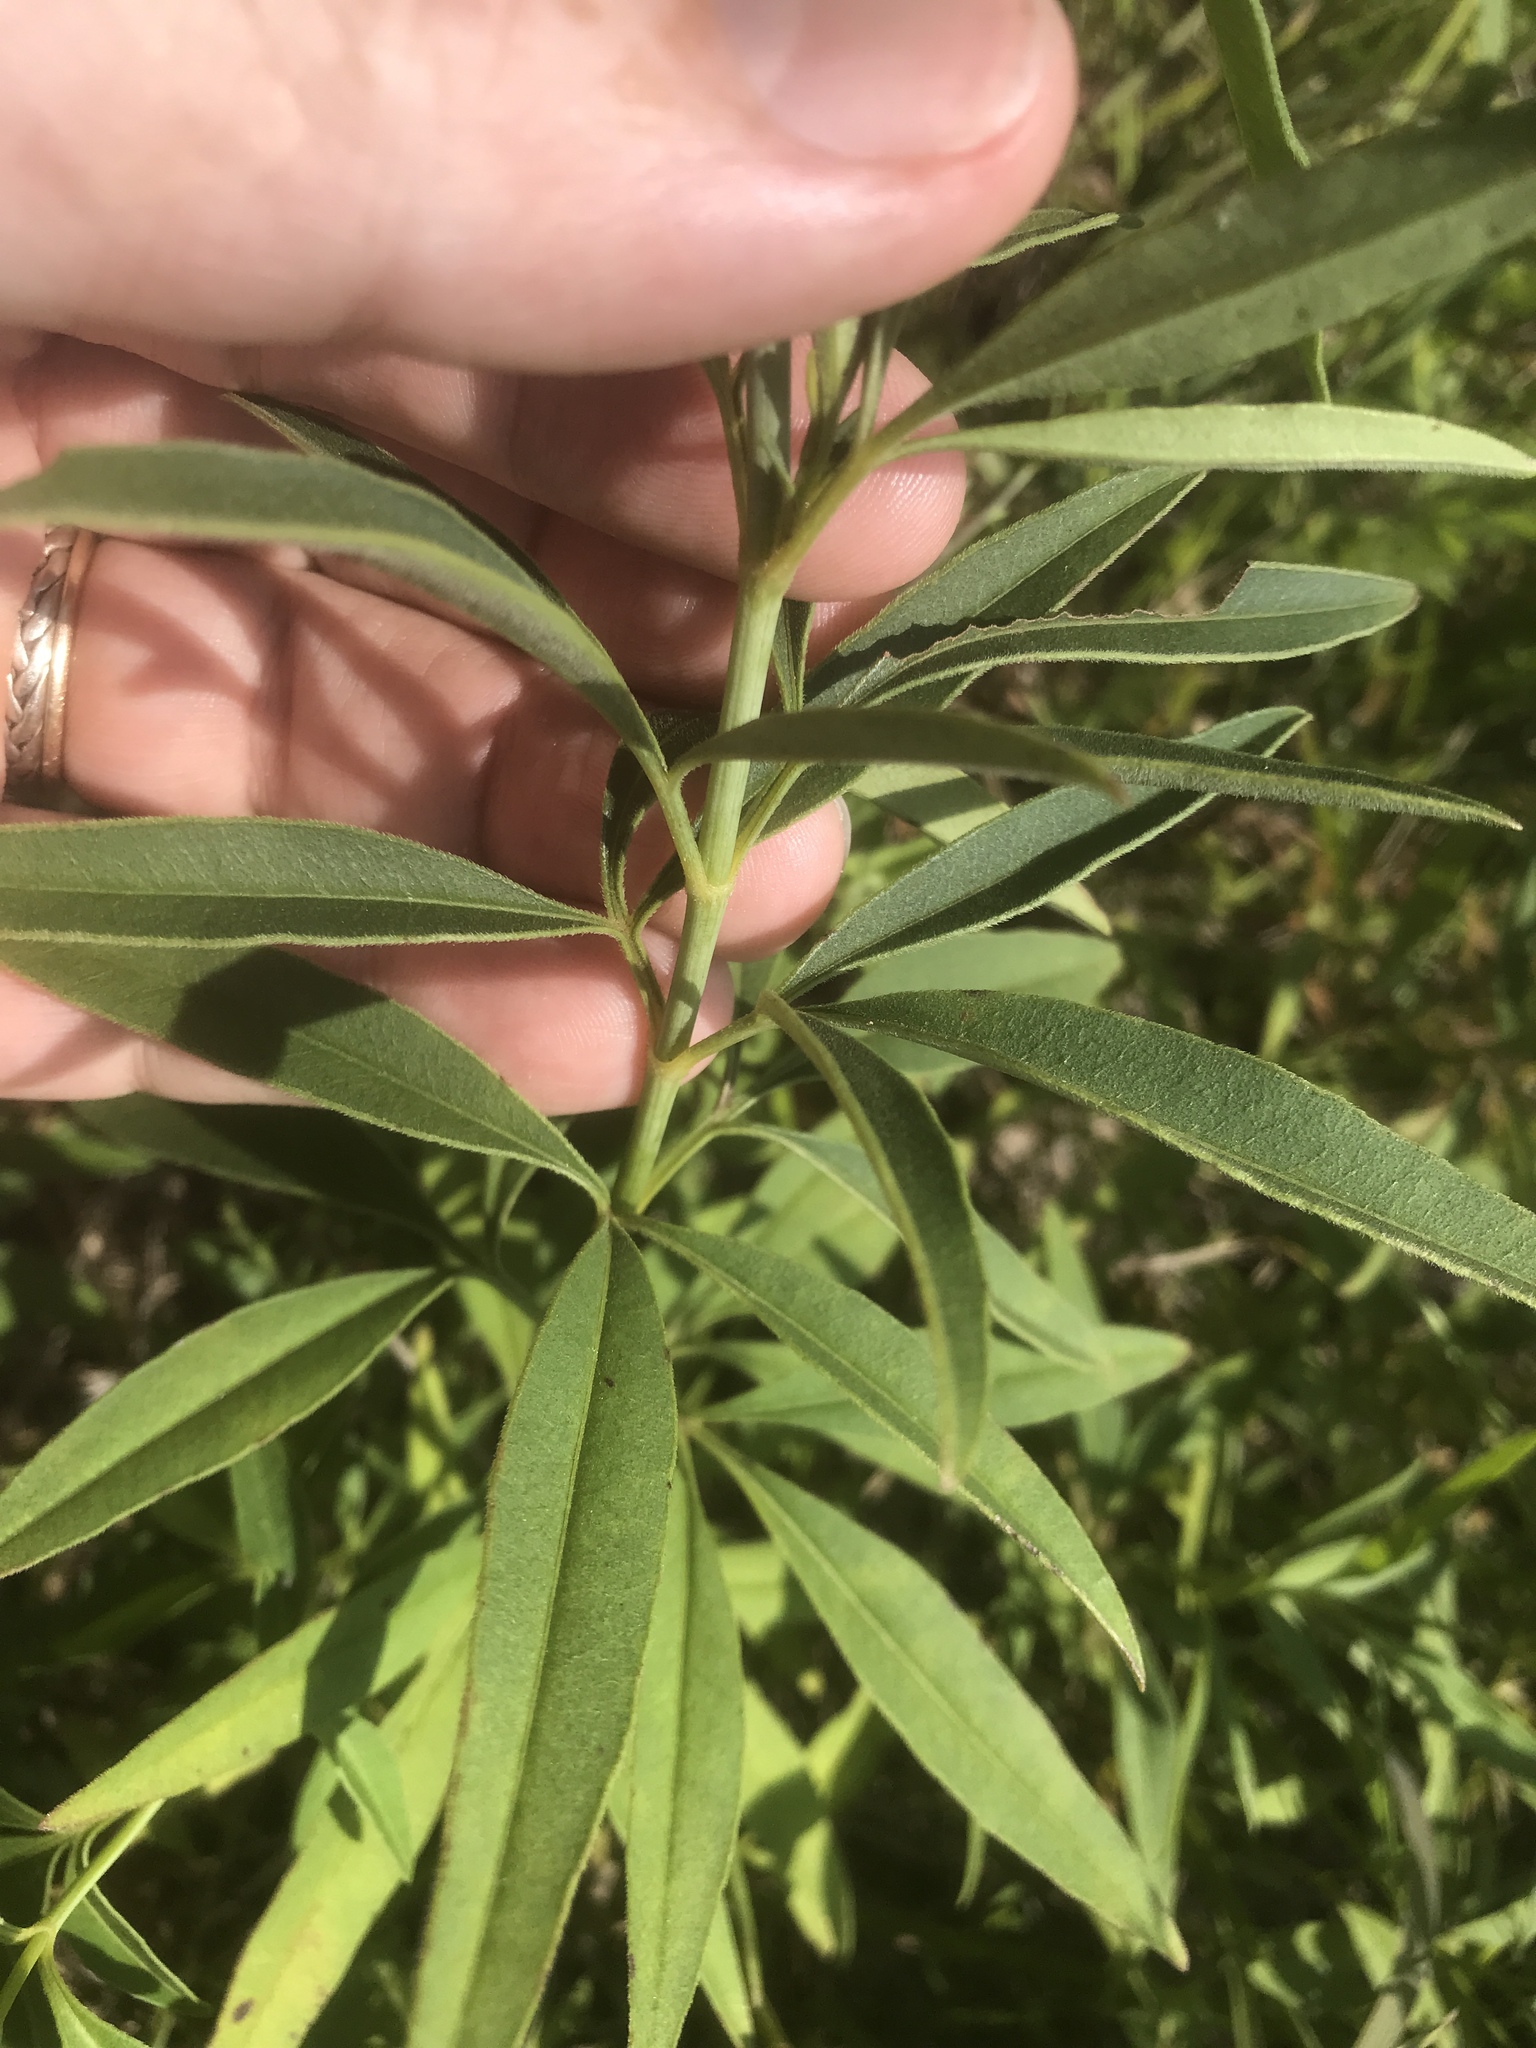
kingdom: Plantae
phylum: Tracheophyta
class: Magnoliopsida
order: Asterales
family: Asteraceae
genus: Coreopsis
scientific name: Coreopsis tripteris
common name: Tall coreopsis
